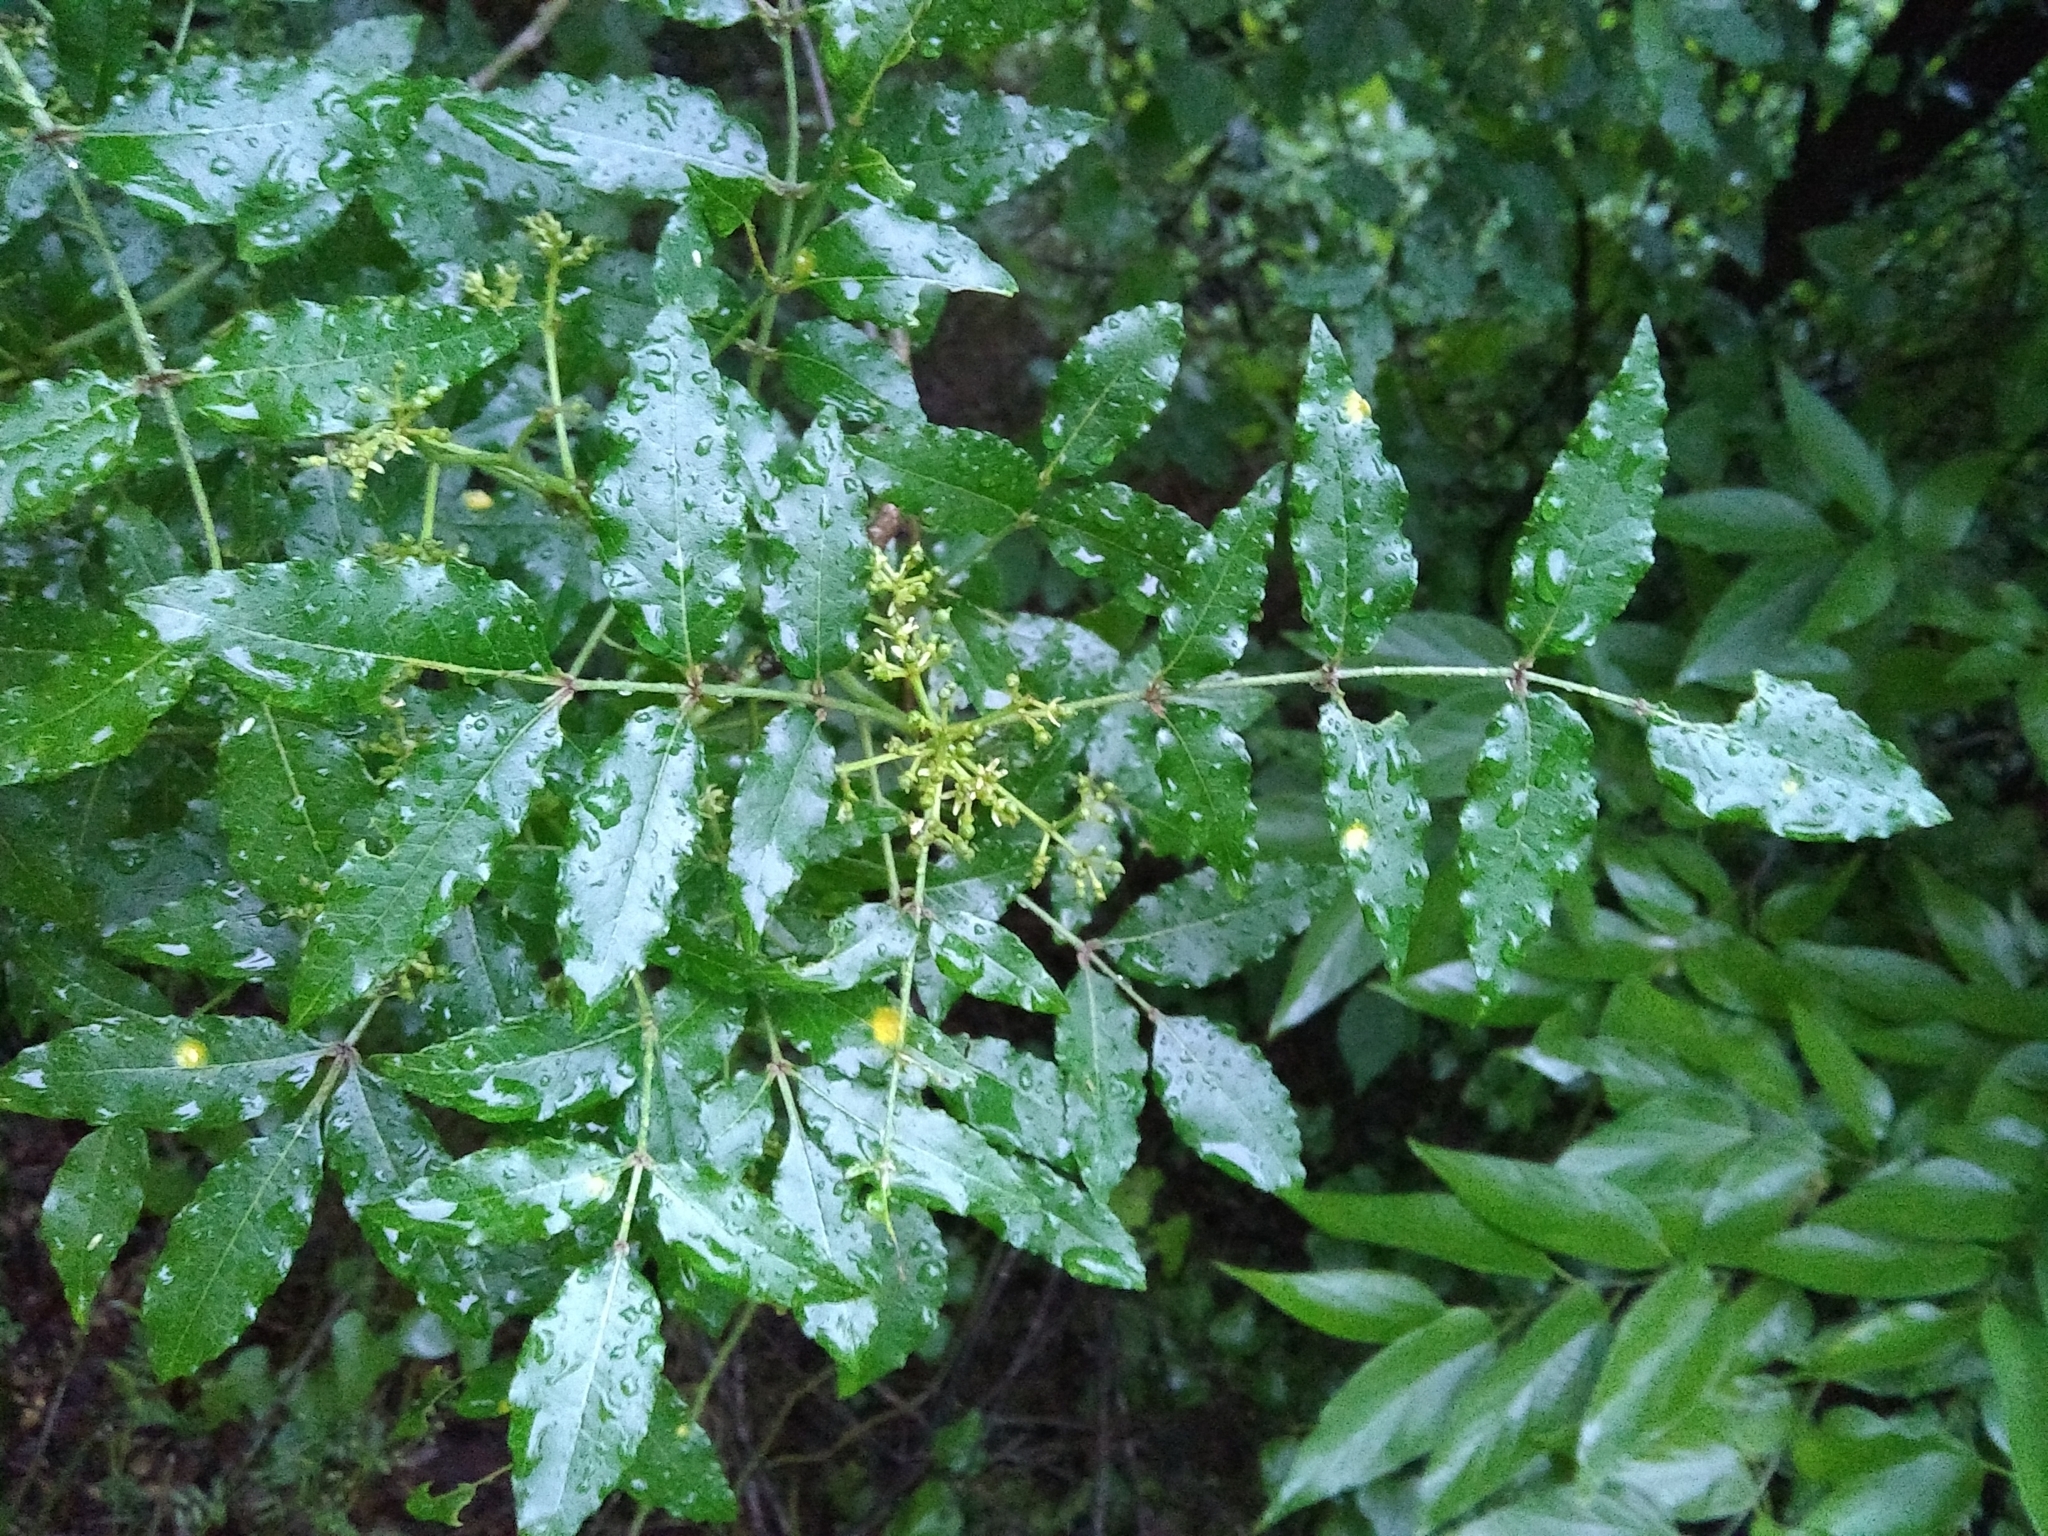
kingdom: Plantae
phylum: Tracheophyta
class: Magnoliopsida
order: Sapindales
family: Rutaceae
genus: Zanthoxylum
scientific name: Zanthoxylum clava-herculis
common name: Hercules'-club
